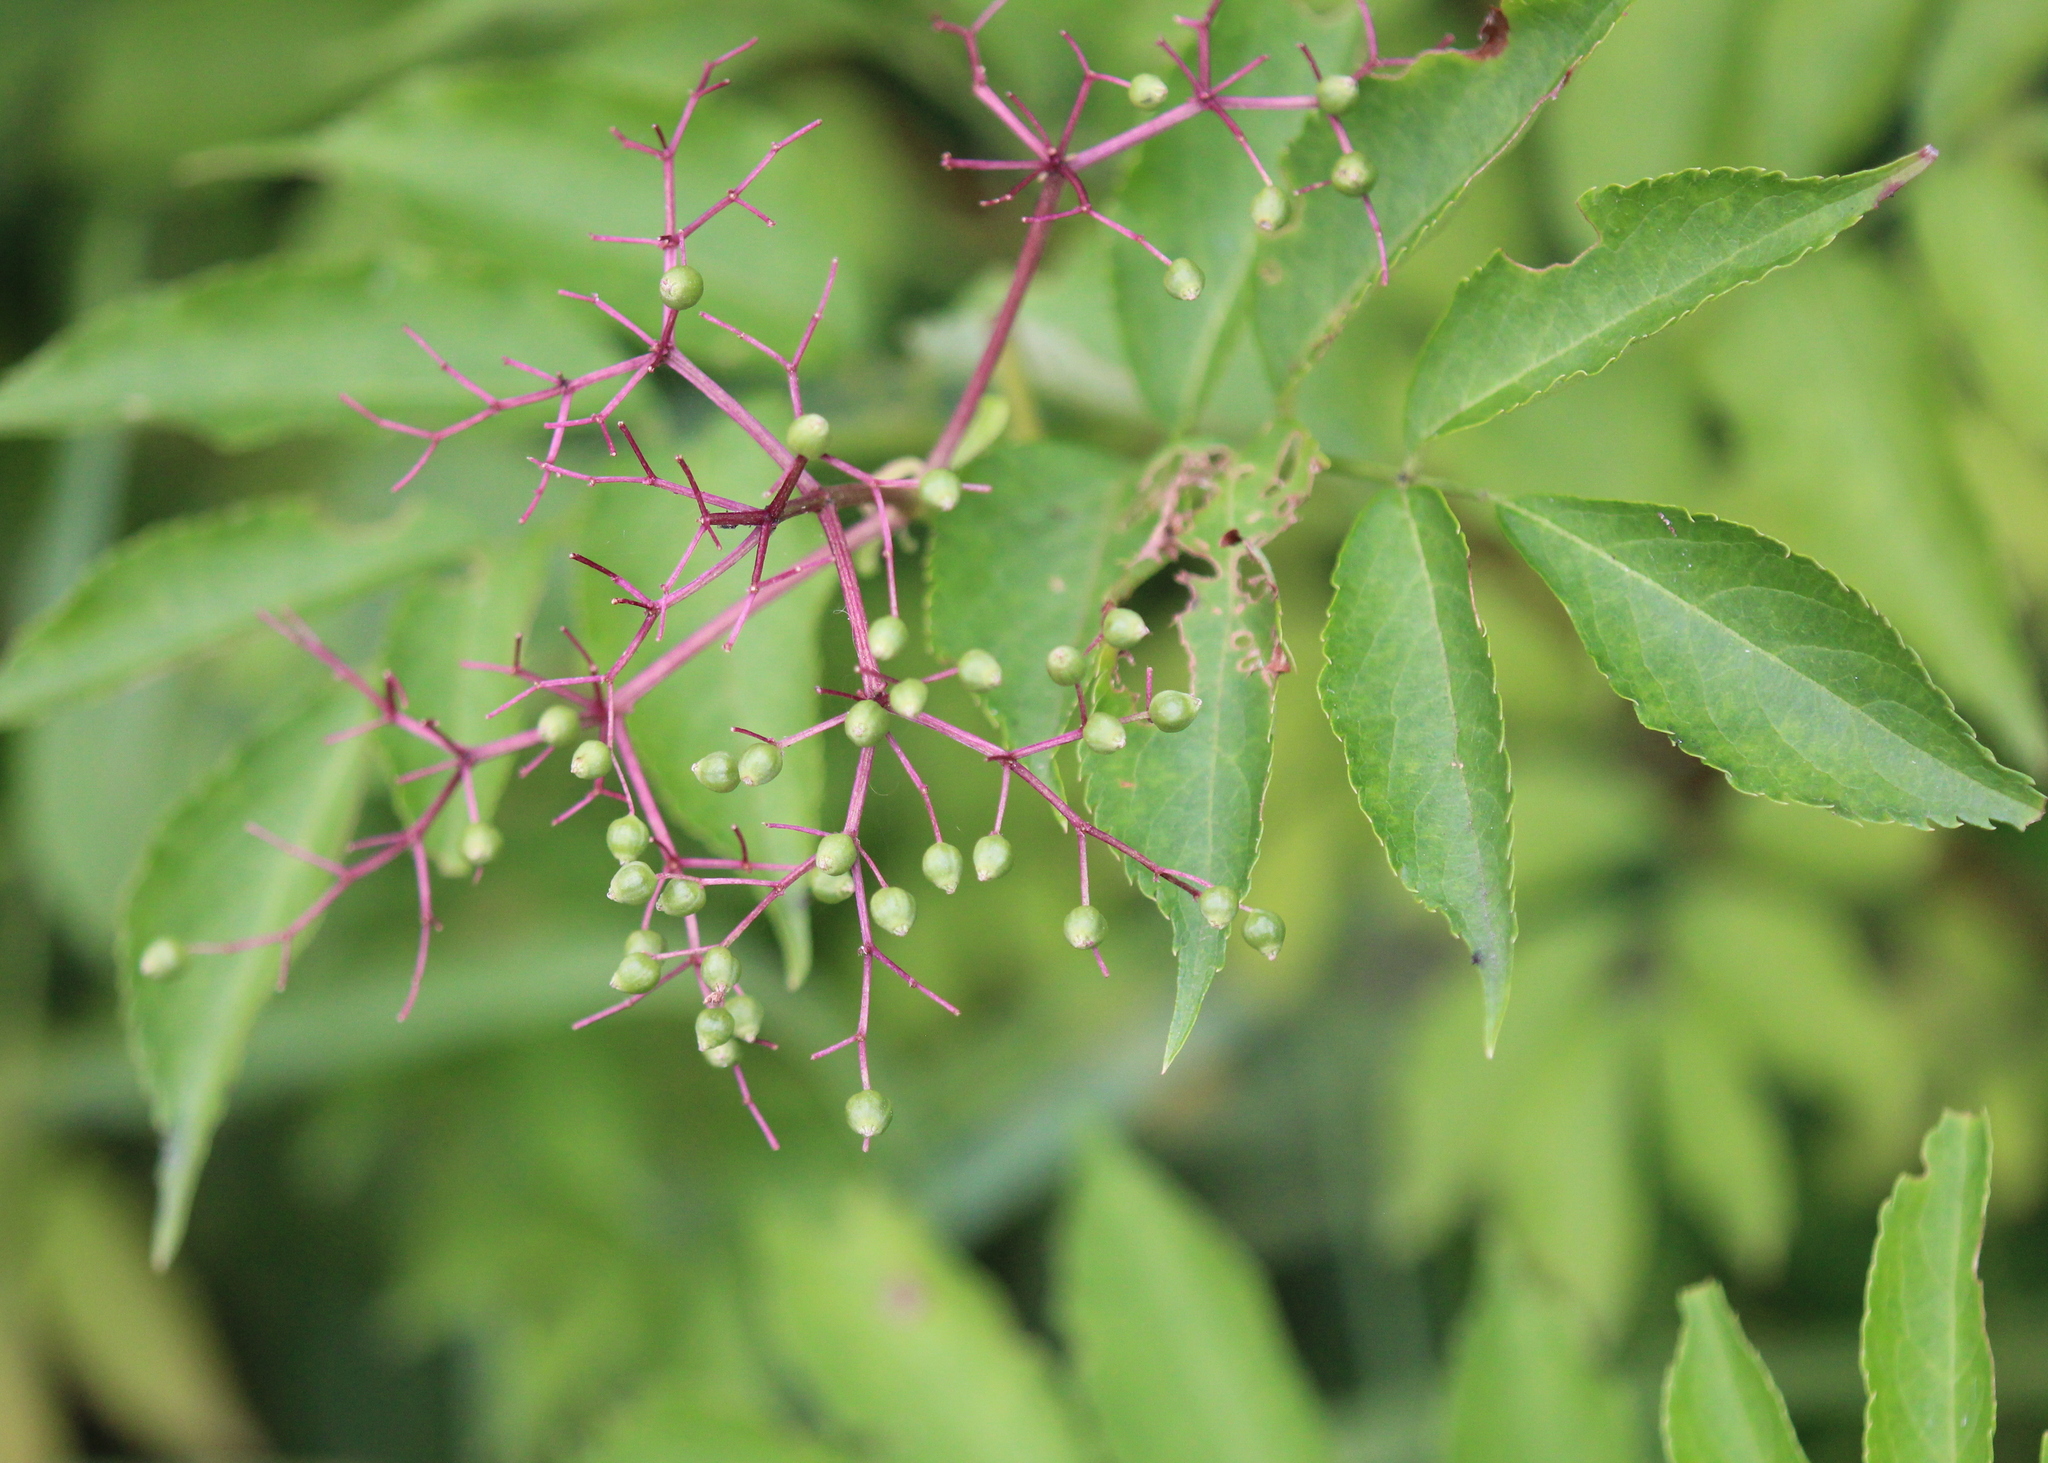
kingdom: Plantae
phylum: Tracheophyta
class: Magnoliopsida
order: Dipsacales
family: Viburnaceae
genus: Sambucus
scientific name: Sambucus canadensis
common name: American elder
